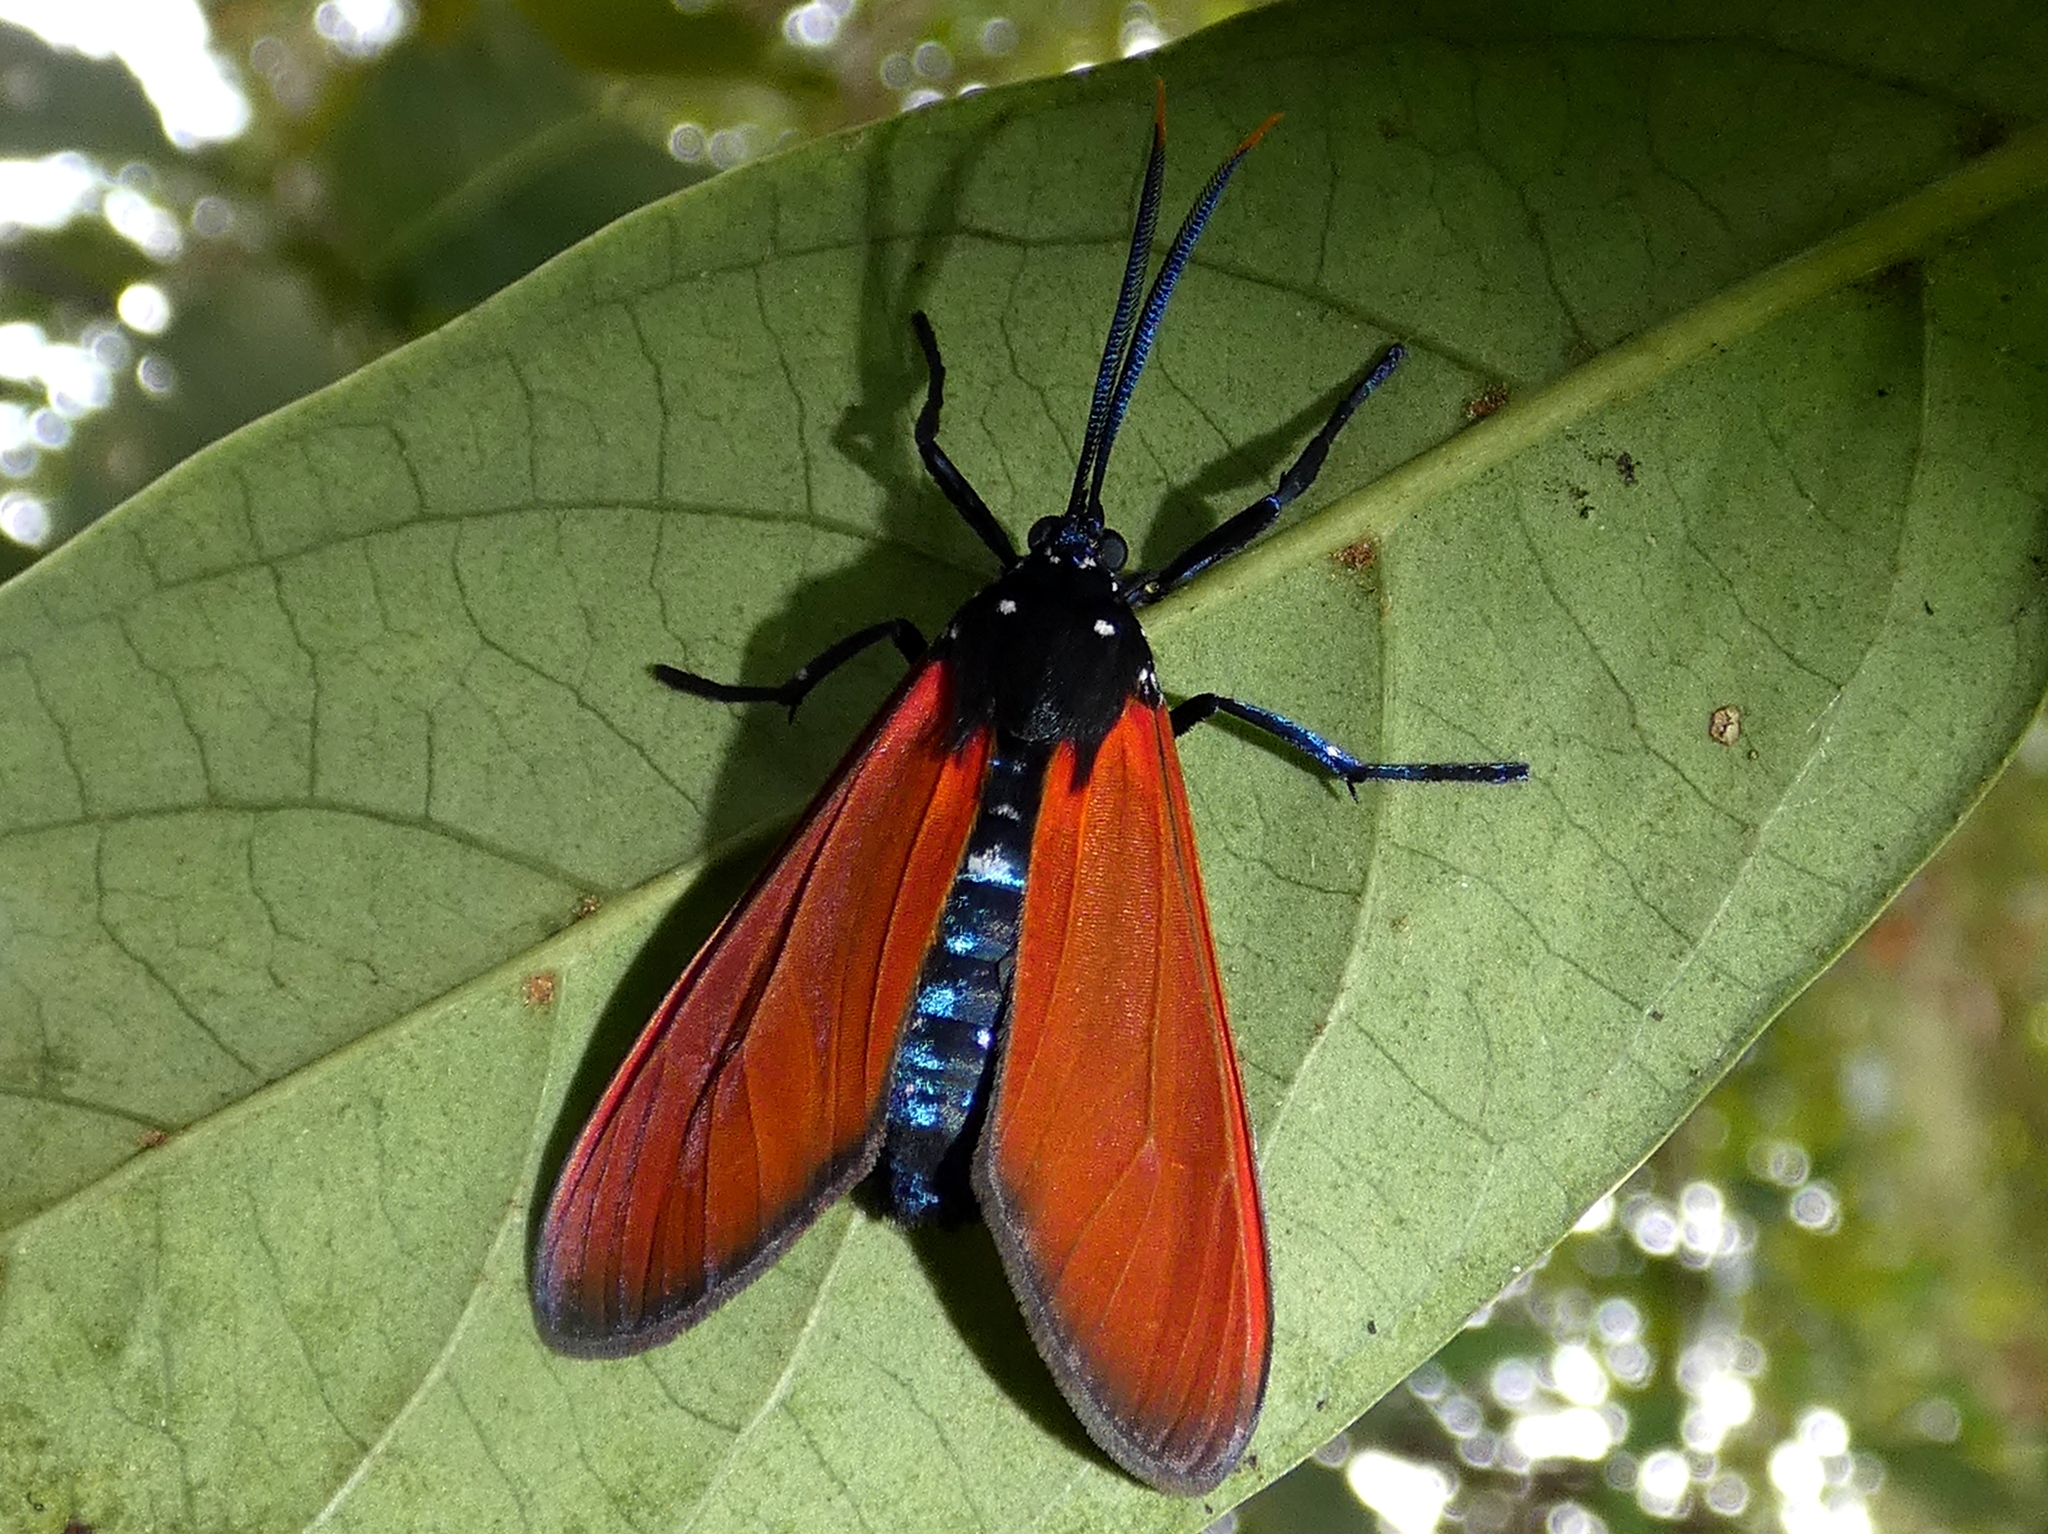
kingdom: Animalia
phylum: Arthropoda
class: Insecta
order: Lepidoptera
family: Erebidae
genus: Empyreuma
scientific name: Empyreuma pugione
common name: Spotted oleander caterpillar moth
